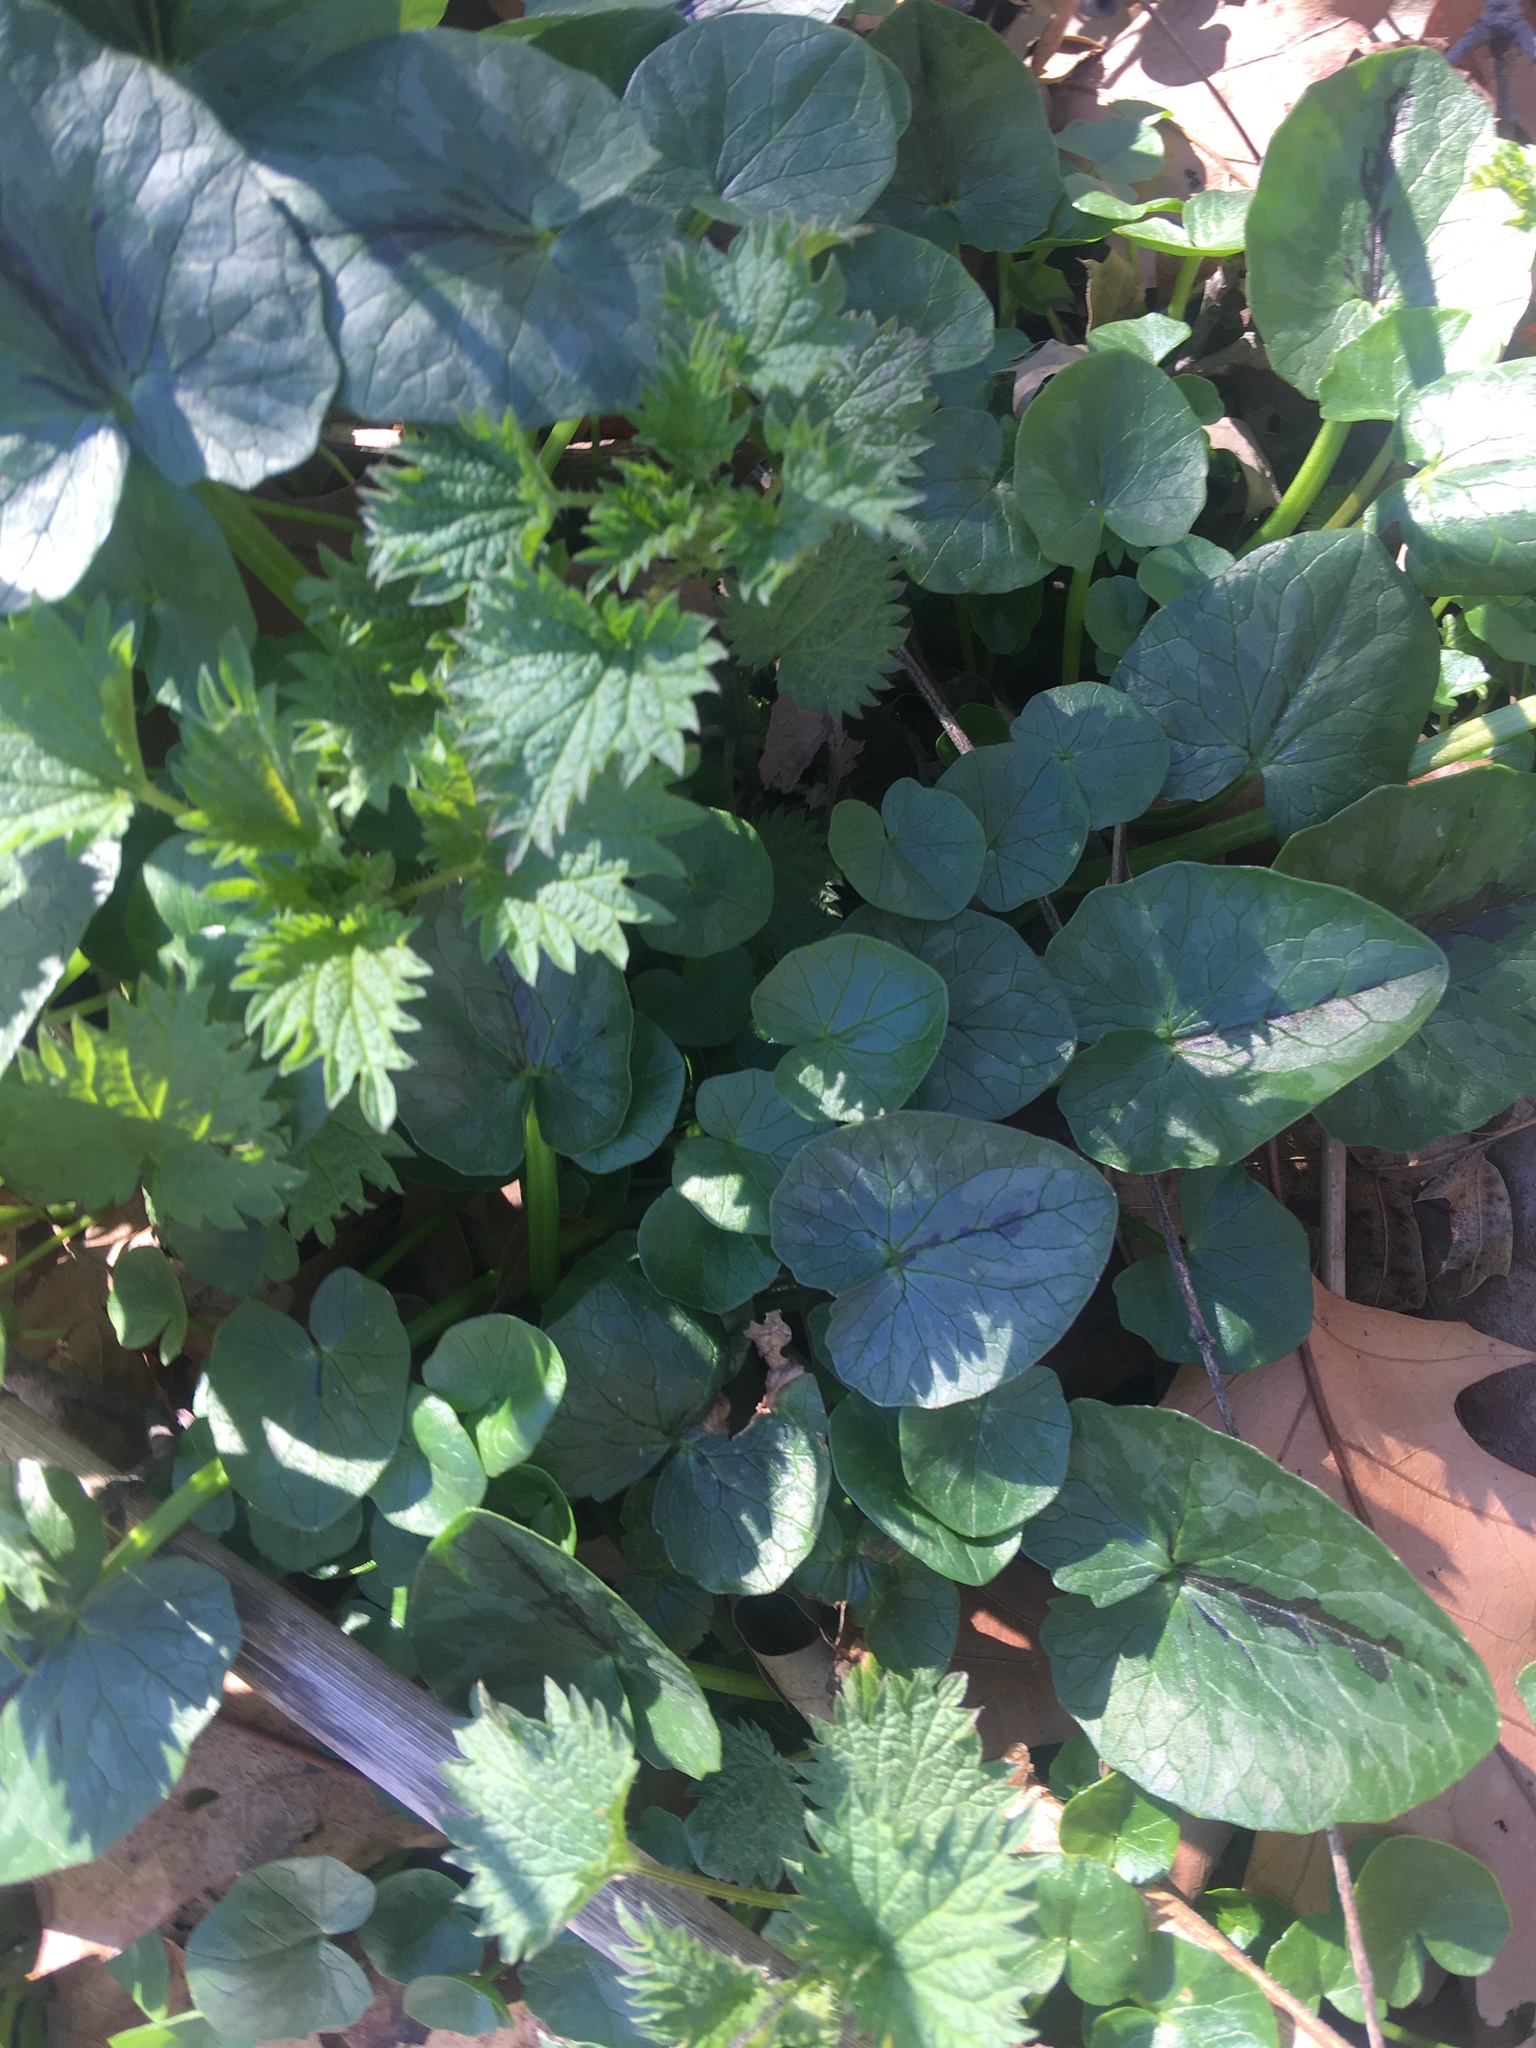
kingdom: Plantae
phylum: Tracheophyta
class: Magnoliopsida
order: Ranunculales
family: Ranunculaceae
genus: Ficaria
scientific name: Ficaria verna
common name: Lesser celandine
